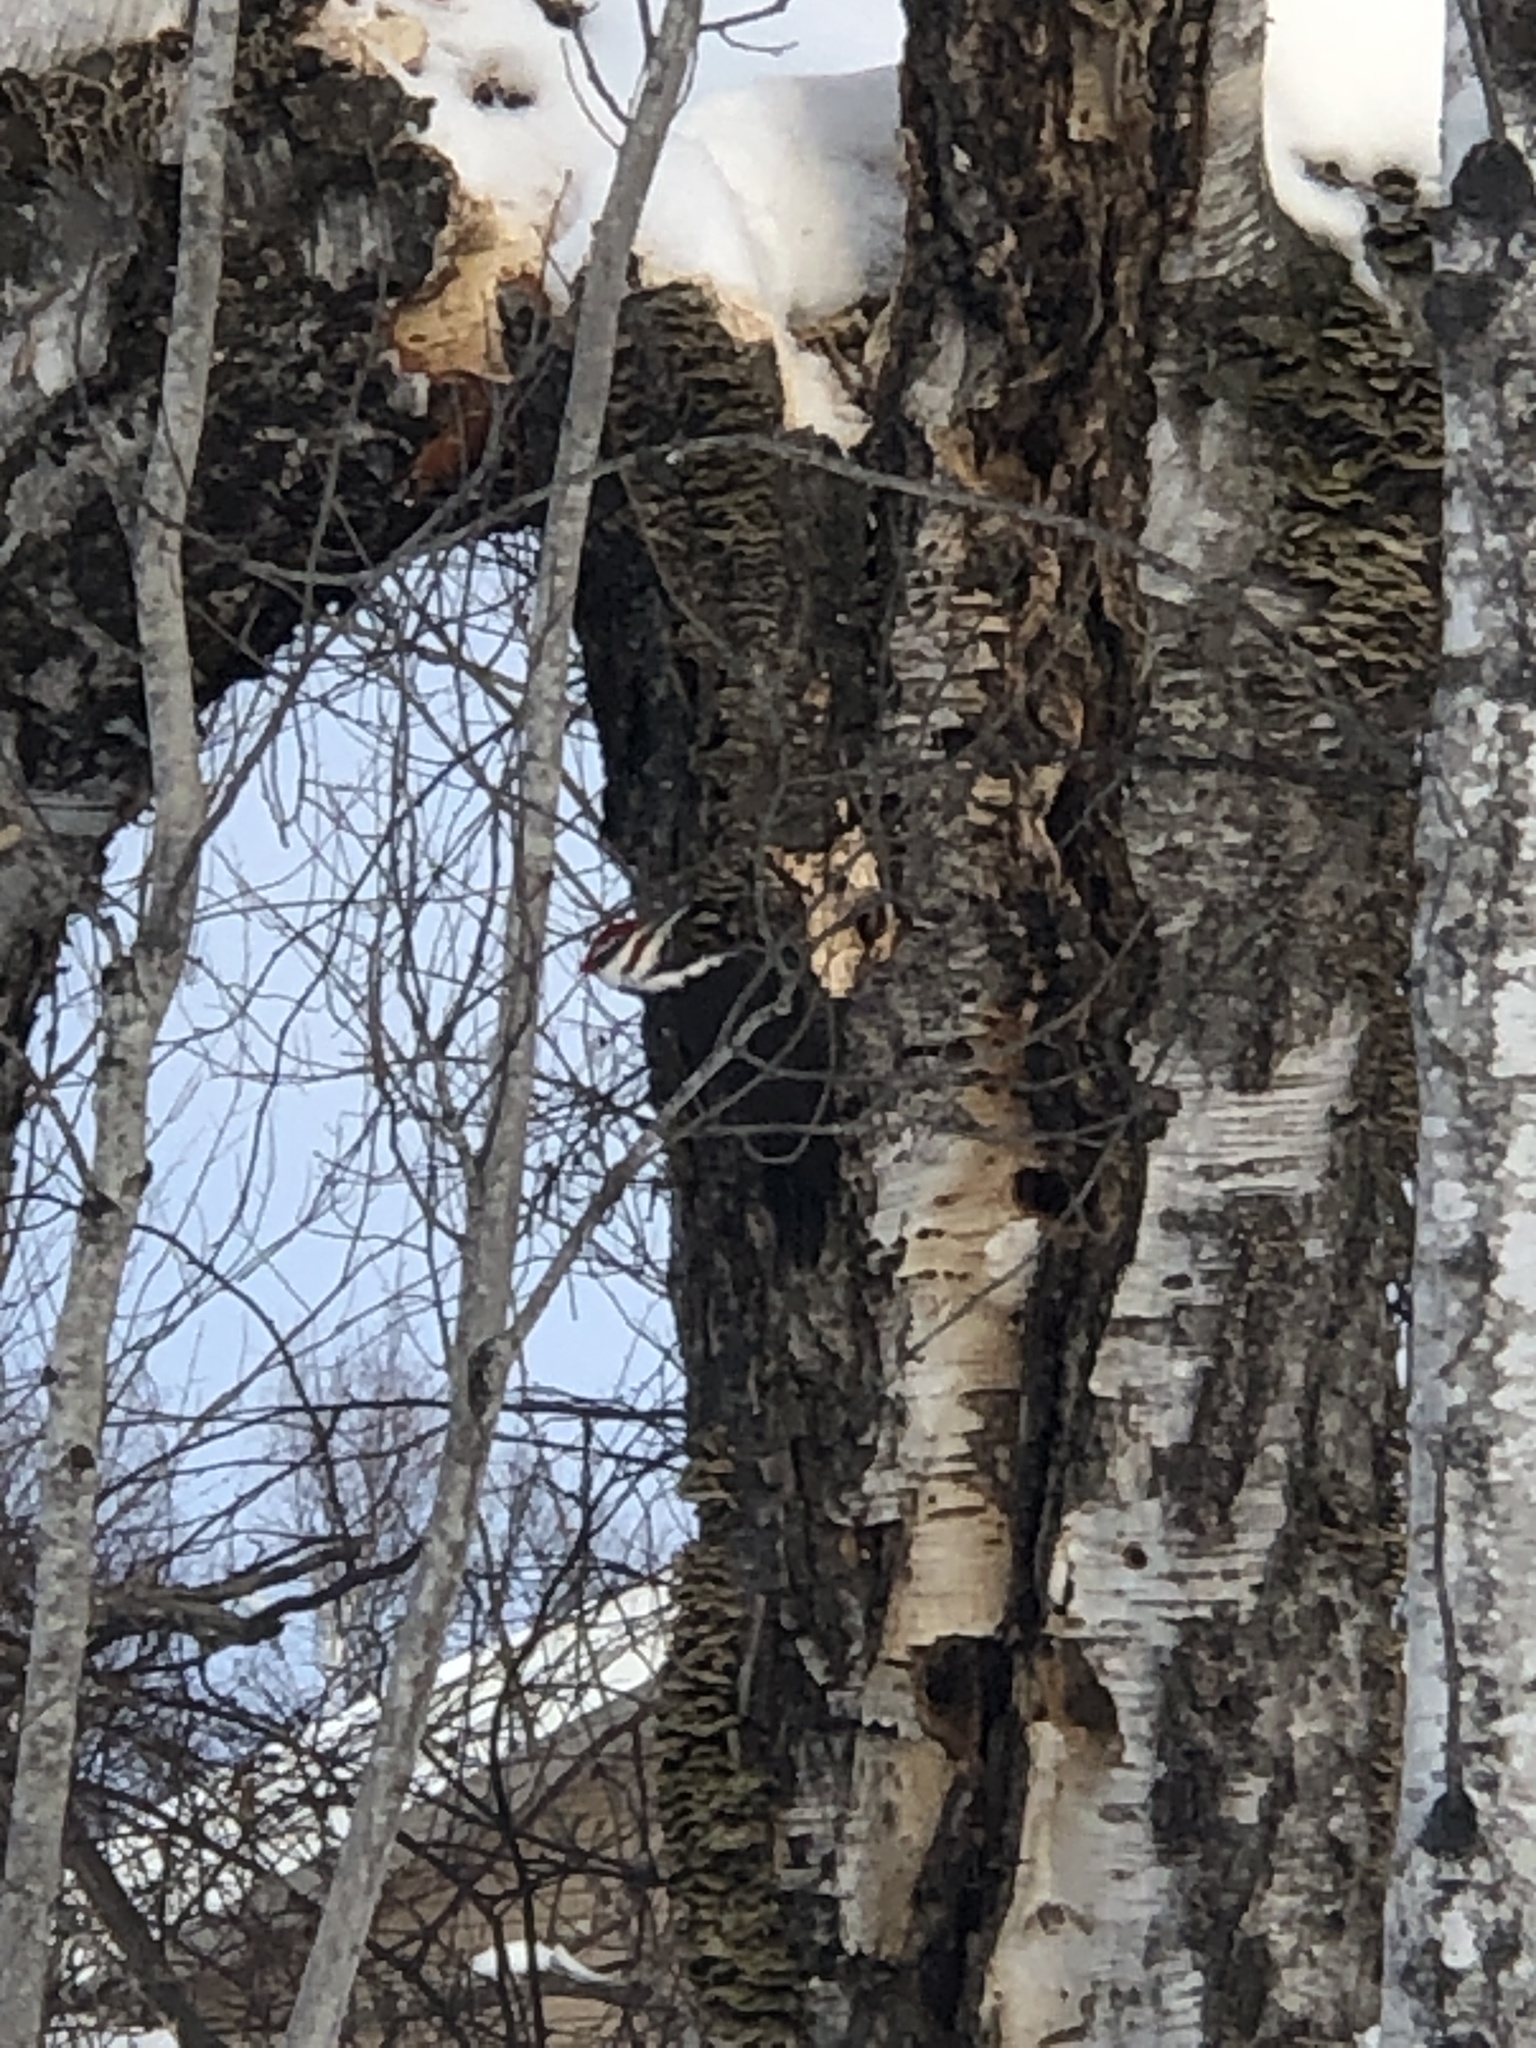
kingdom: Animalia
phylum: Chordata
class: Aves
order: Piciformes
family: Picidae
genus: Dryocopus
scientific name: Dryocopus pileatus
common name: Pileated woodpecker
